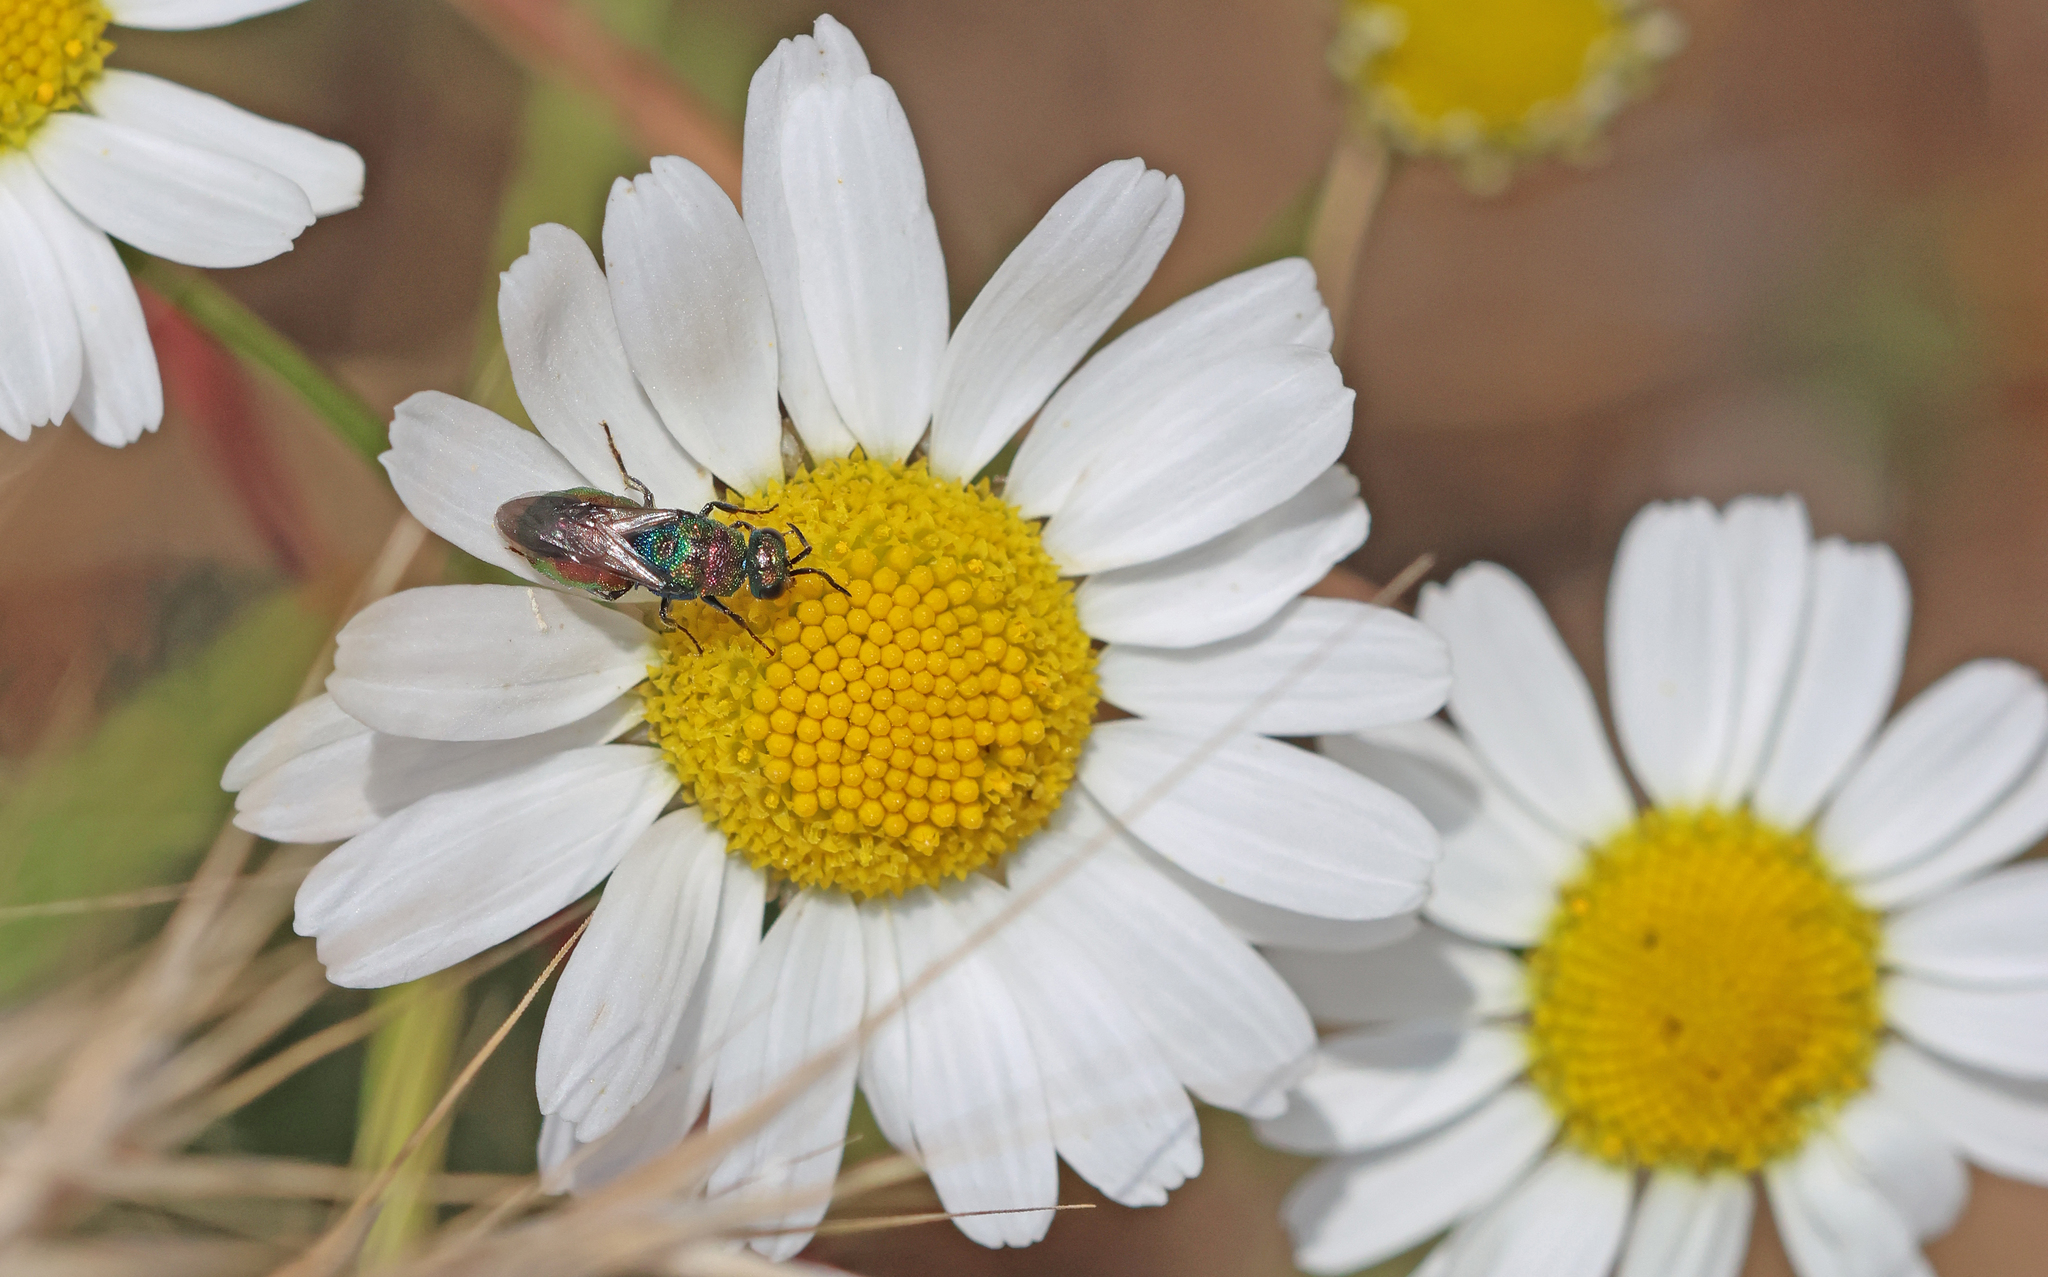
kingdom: Animalia
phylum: Arthropoda
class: Insecta
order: Hymenoptera
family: Chrysididae
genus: Hedychrum
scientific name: Hedychrum rutilans
